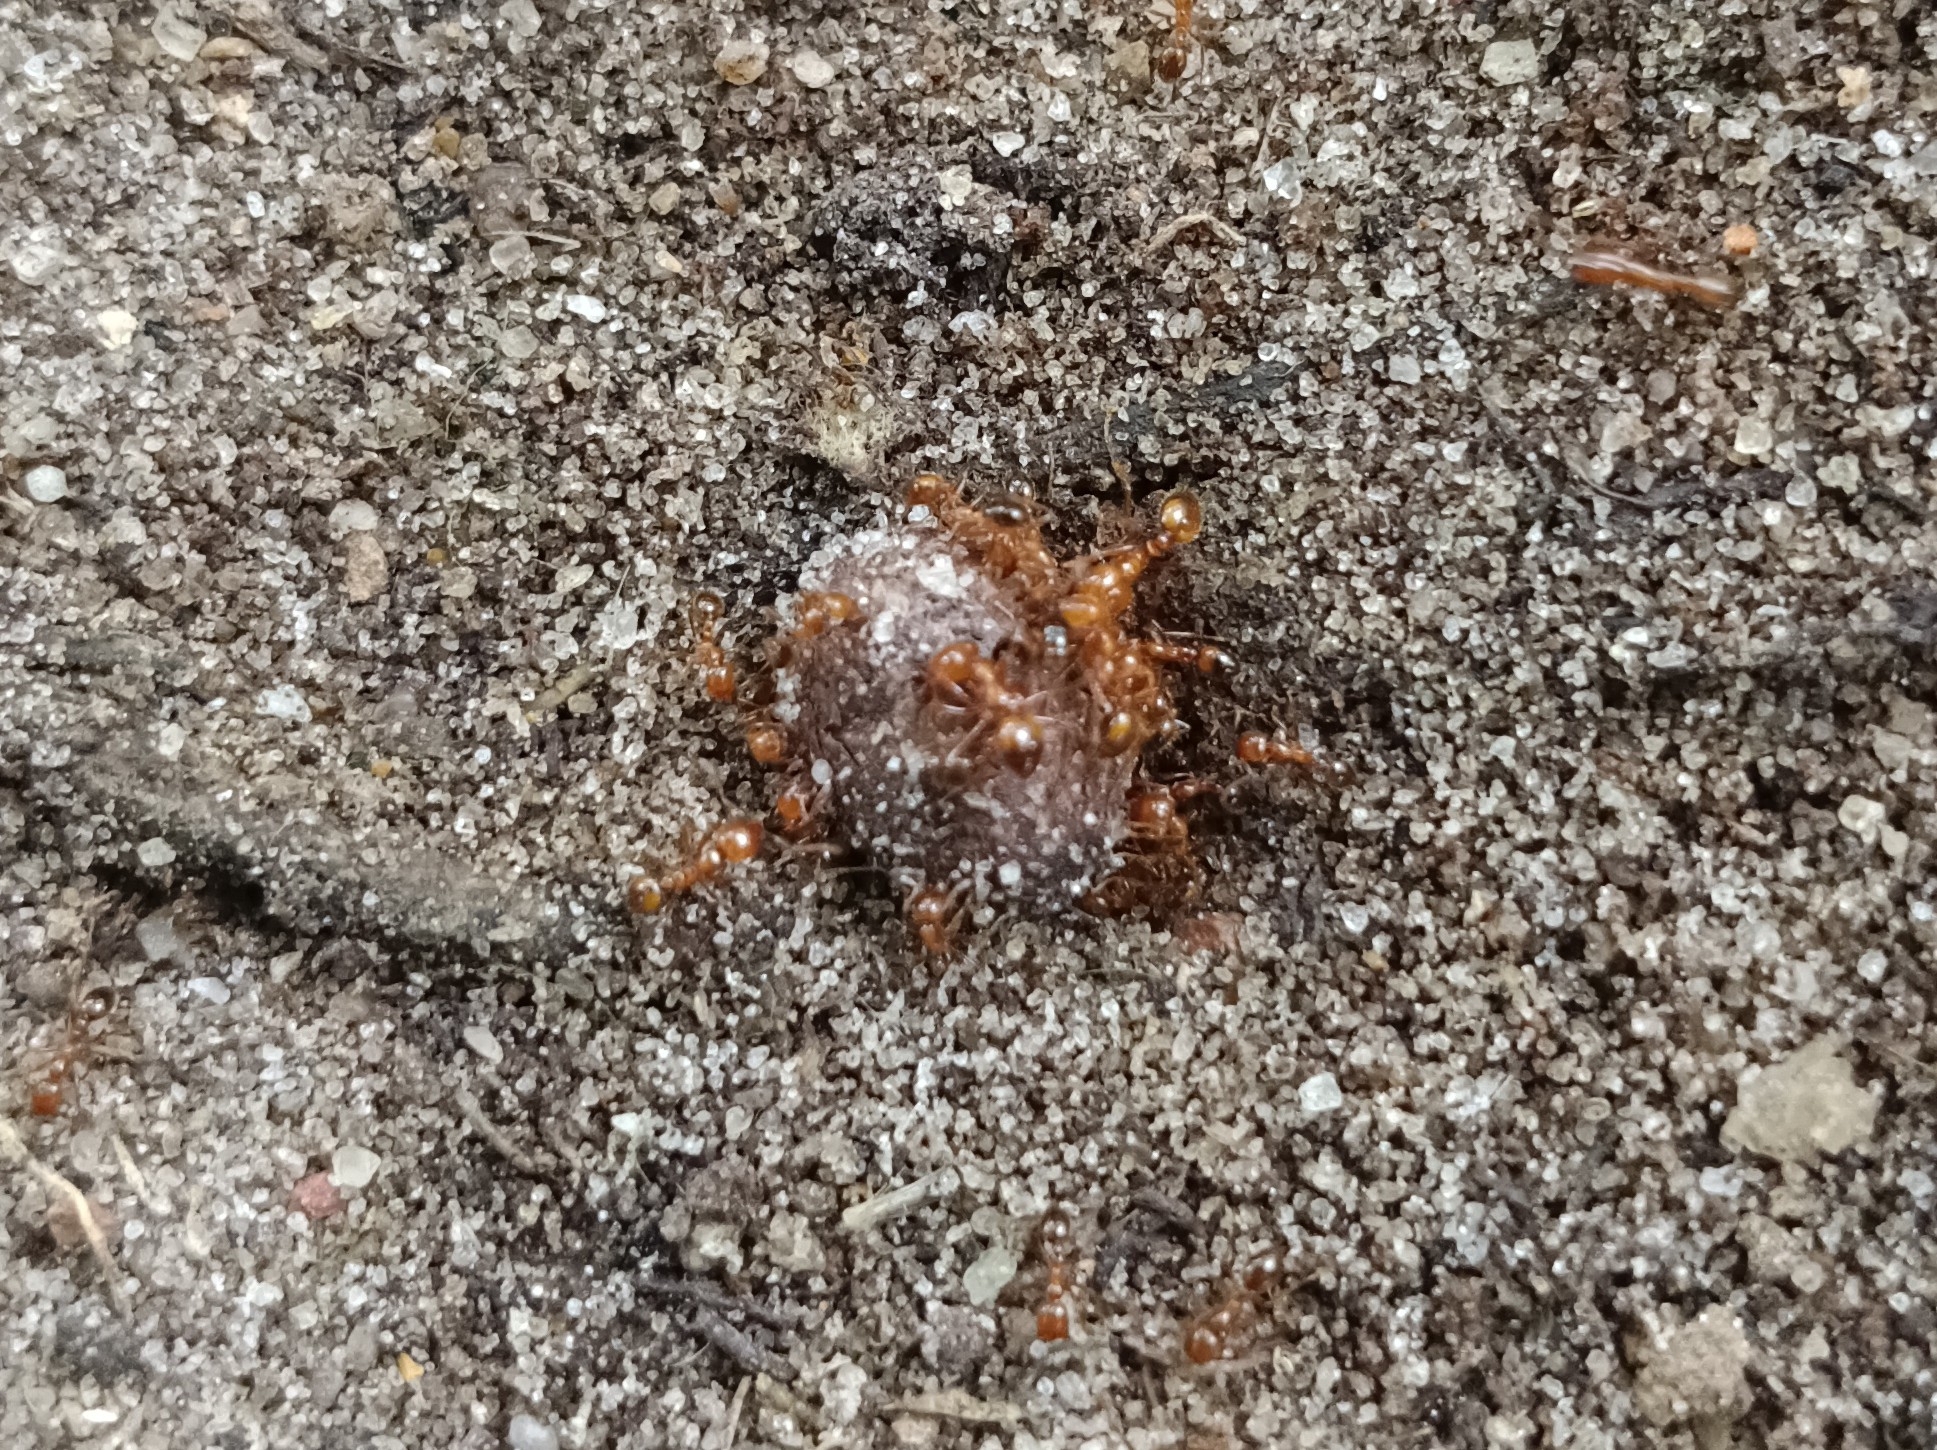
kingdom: Animalia
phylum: Arthropoda
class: Insecta
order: Hymenoptera
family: Formicidae
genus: Solenopsis
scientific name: Solenopsis geminata
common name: Tropical fire ant
